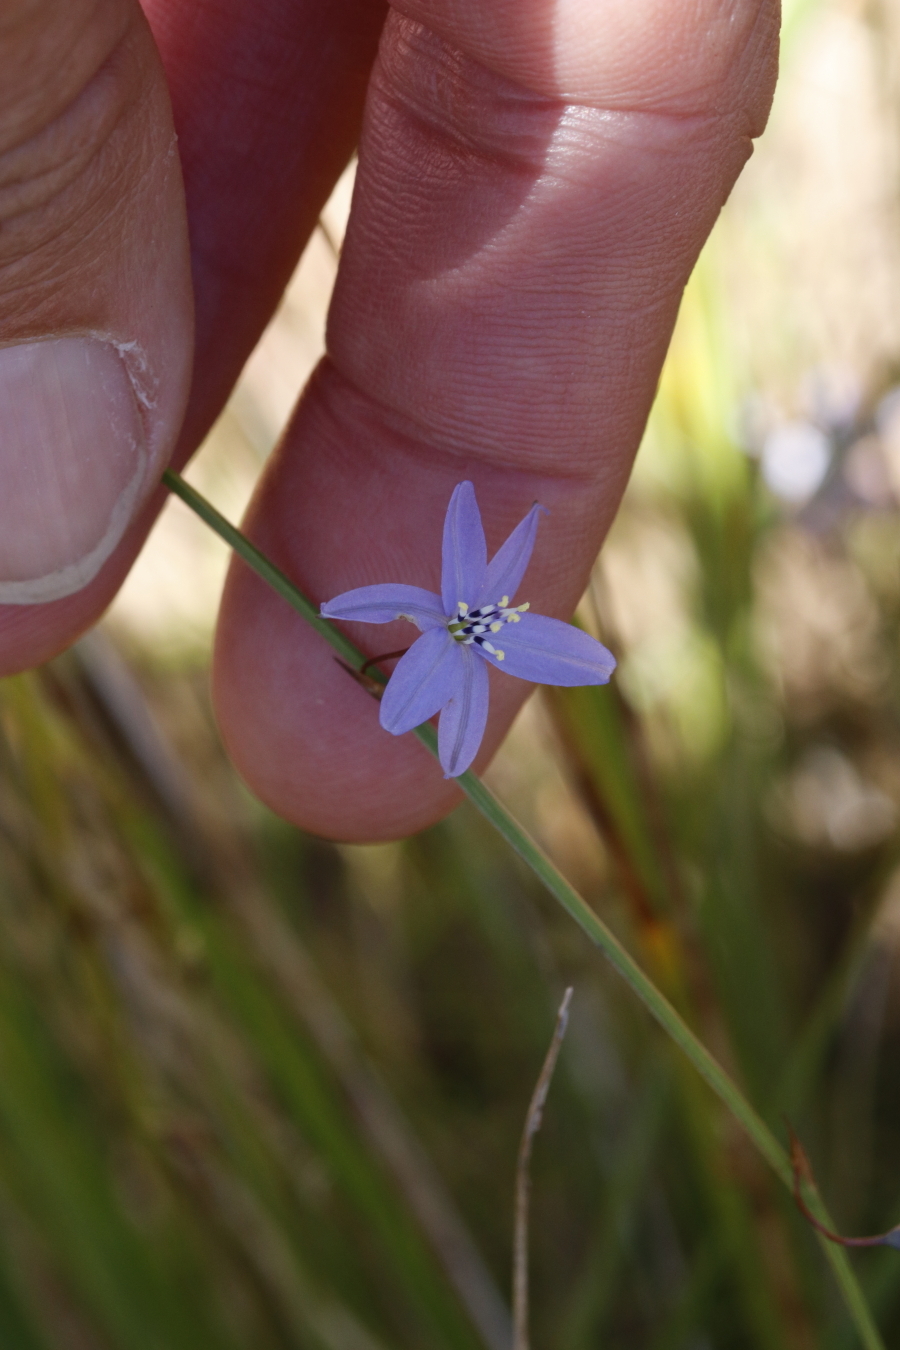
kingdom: Plantae
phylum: Tracheophyta
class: Liliopsida
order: Asparagales
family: Asphodelaceae
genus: Caesia
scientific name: Caesia contorta
